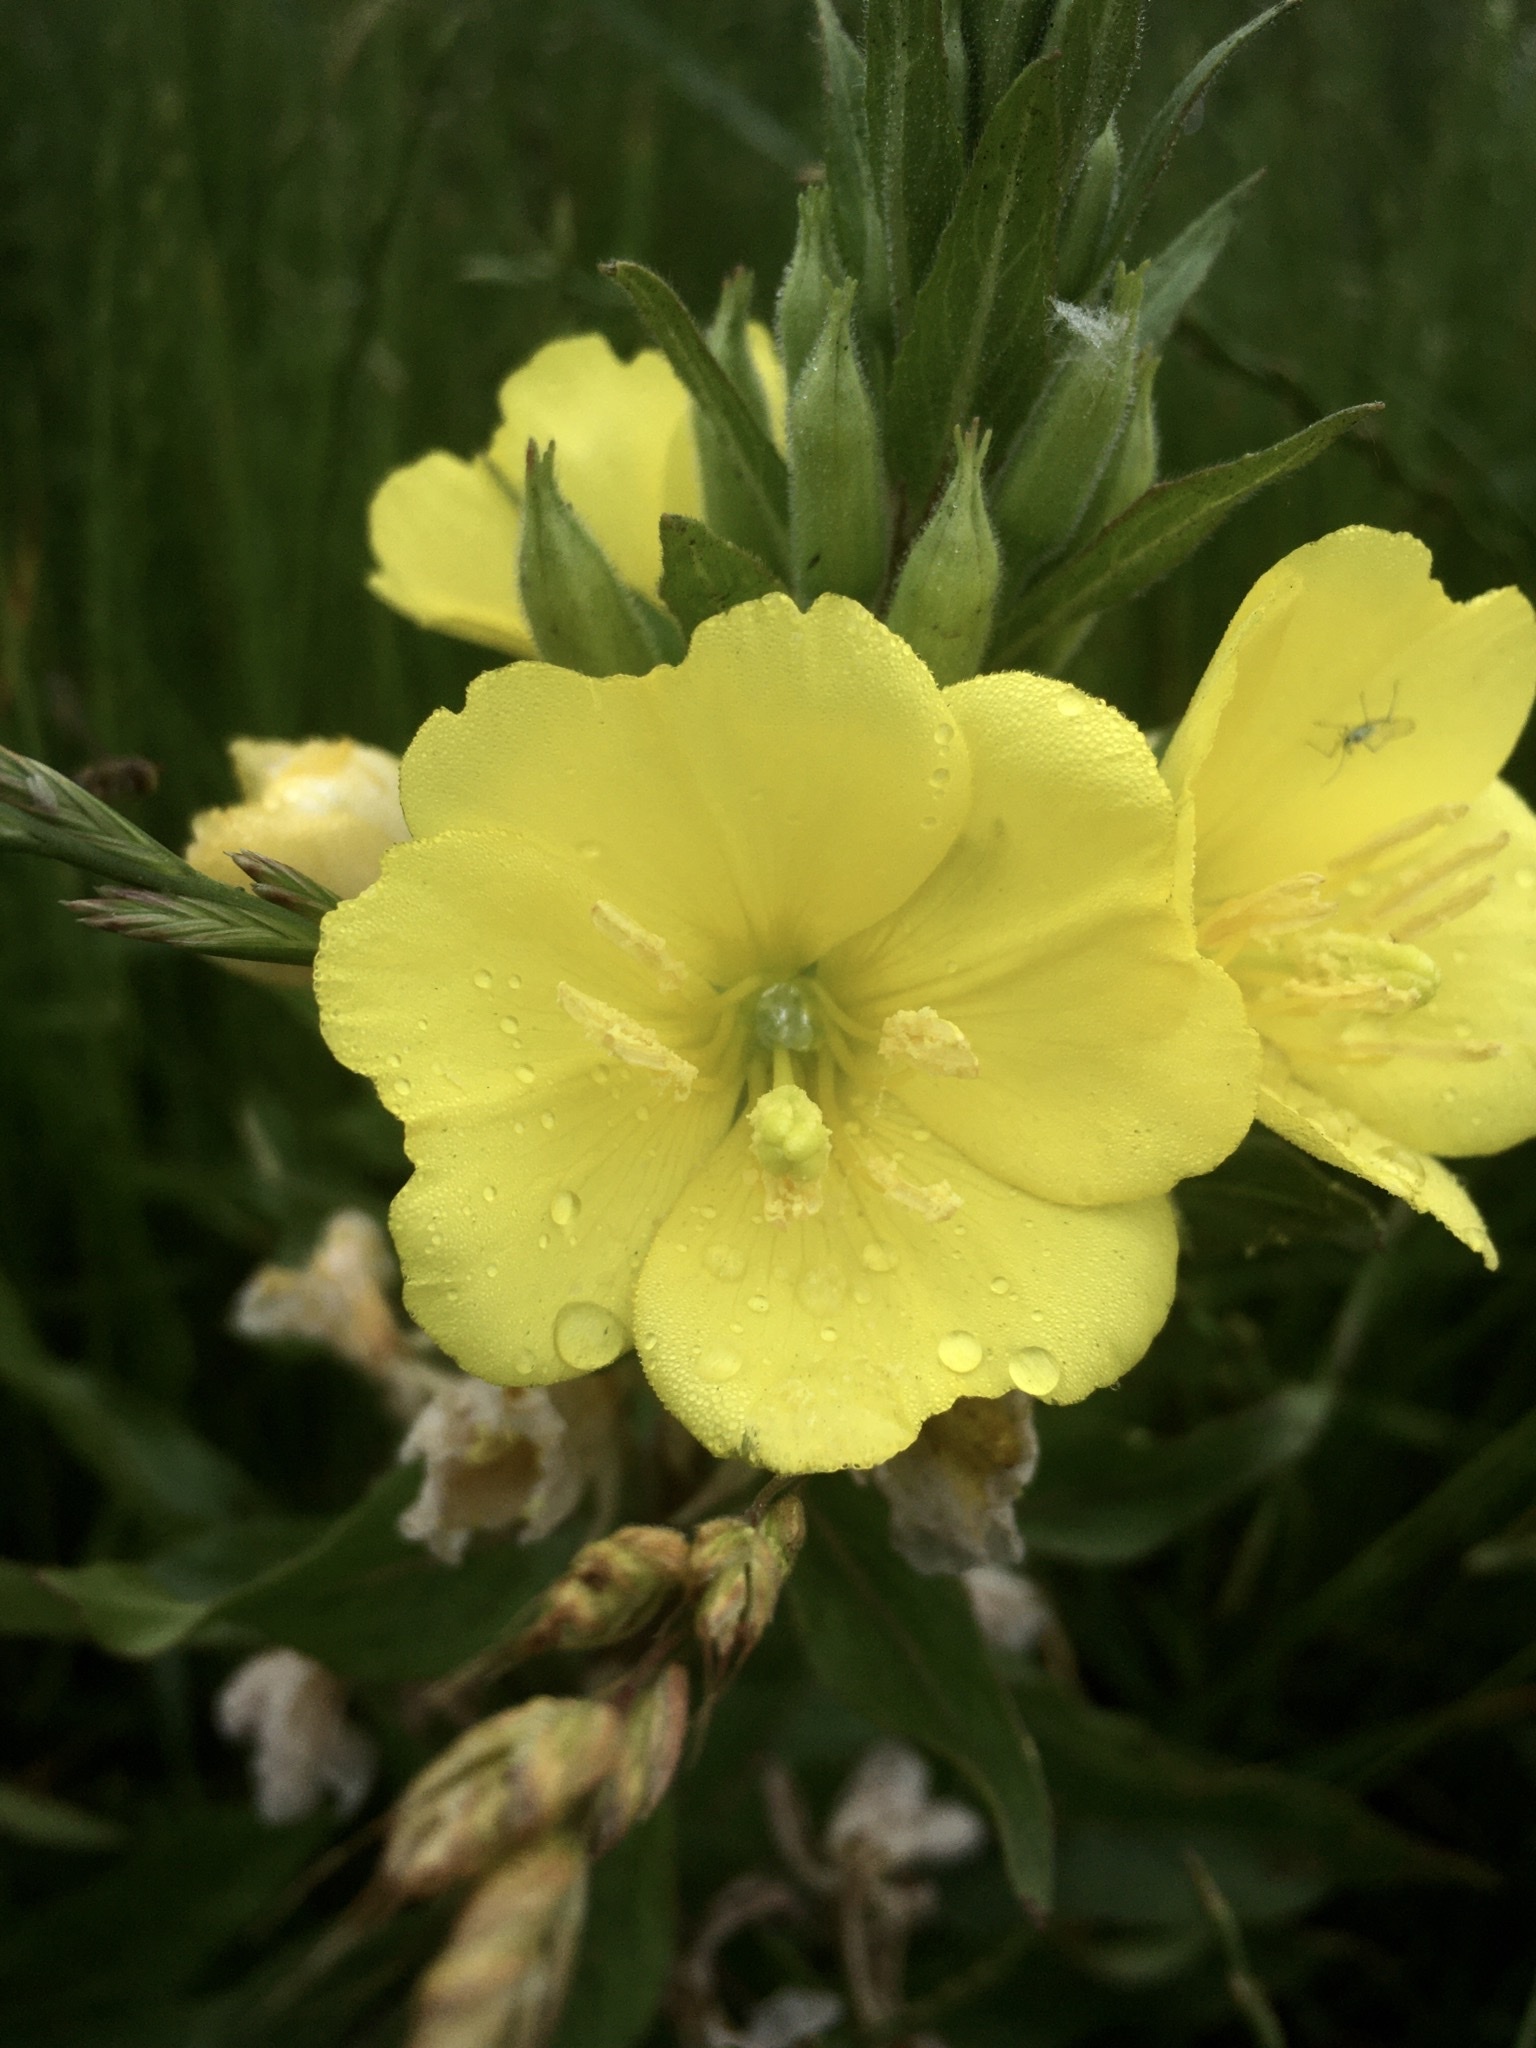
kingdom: Plantae
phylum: Tracheophyta
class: Magnoliopsida
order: Myrtales
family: Onagraceae
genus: Oenothera
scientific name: Oenothera biennis
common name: Common evening-primrose
